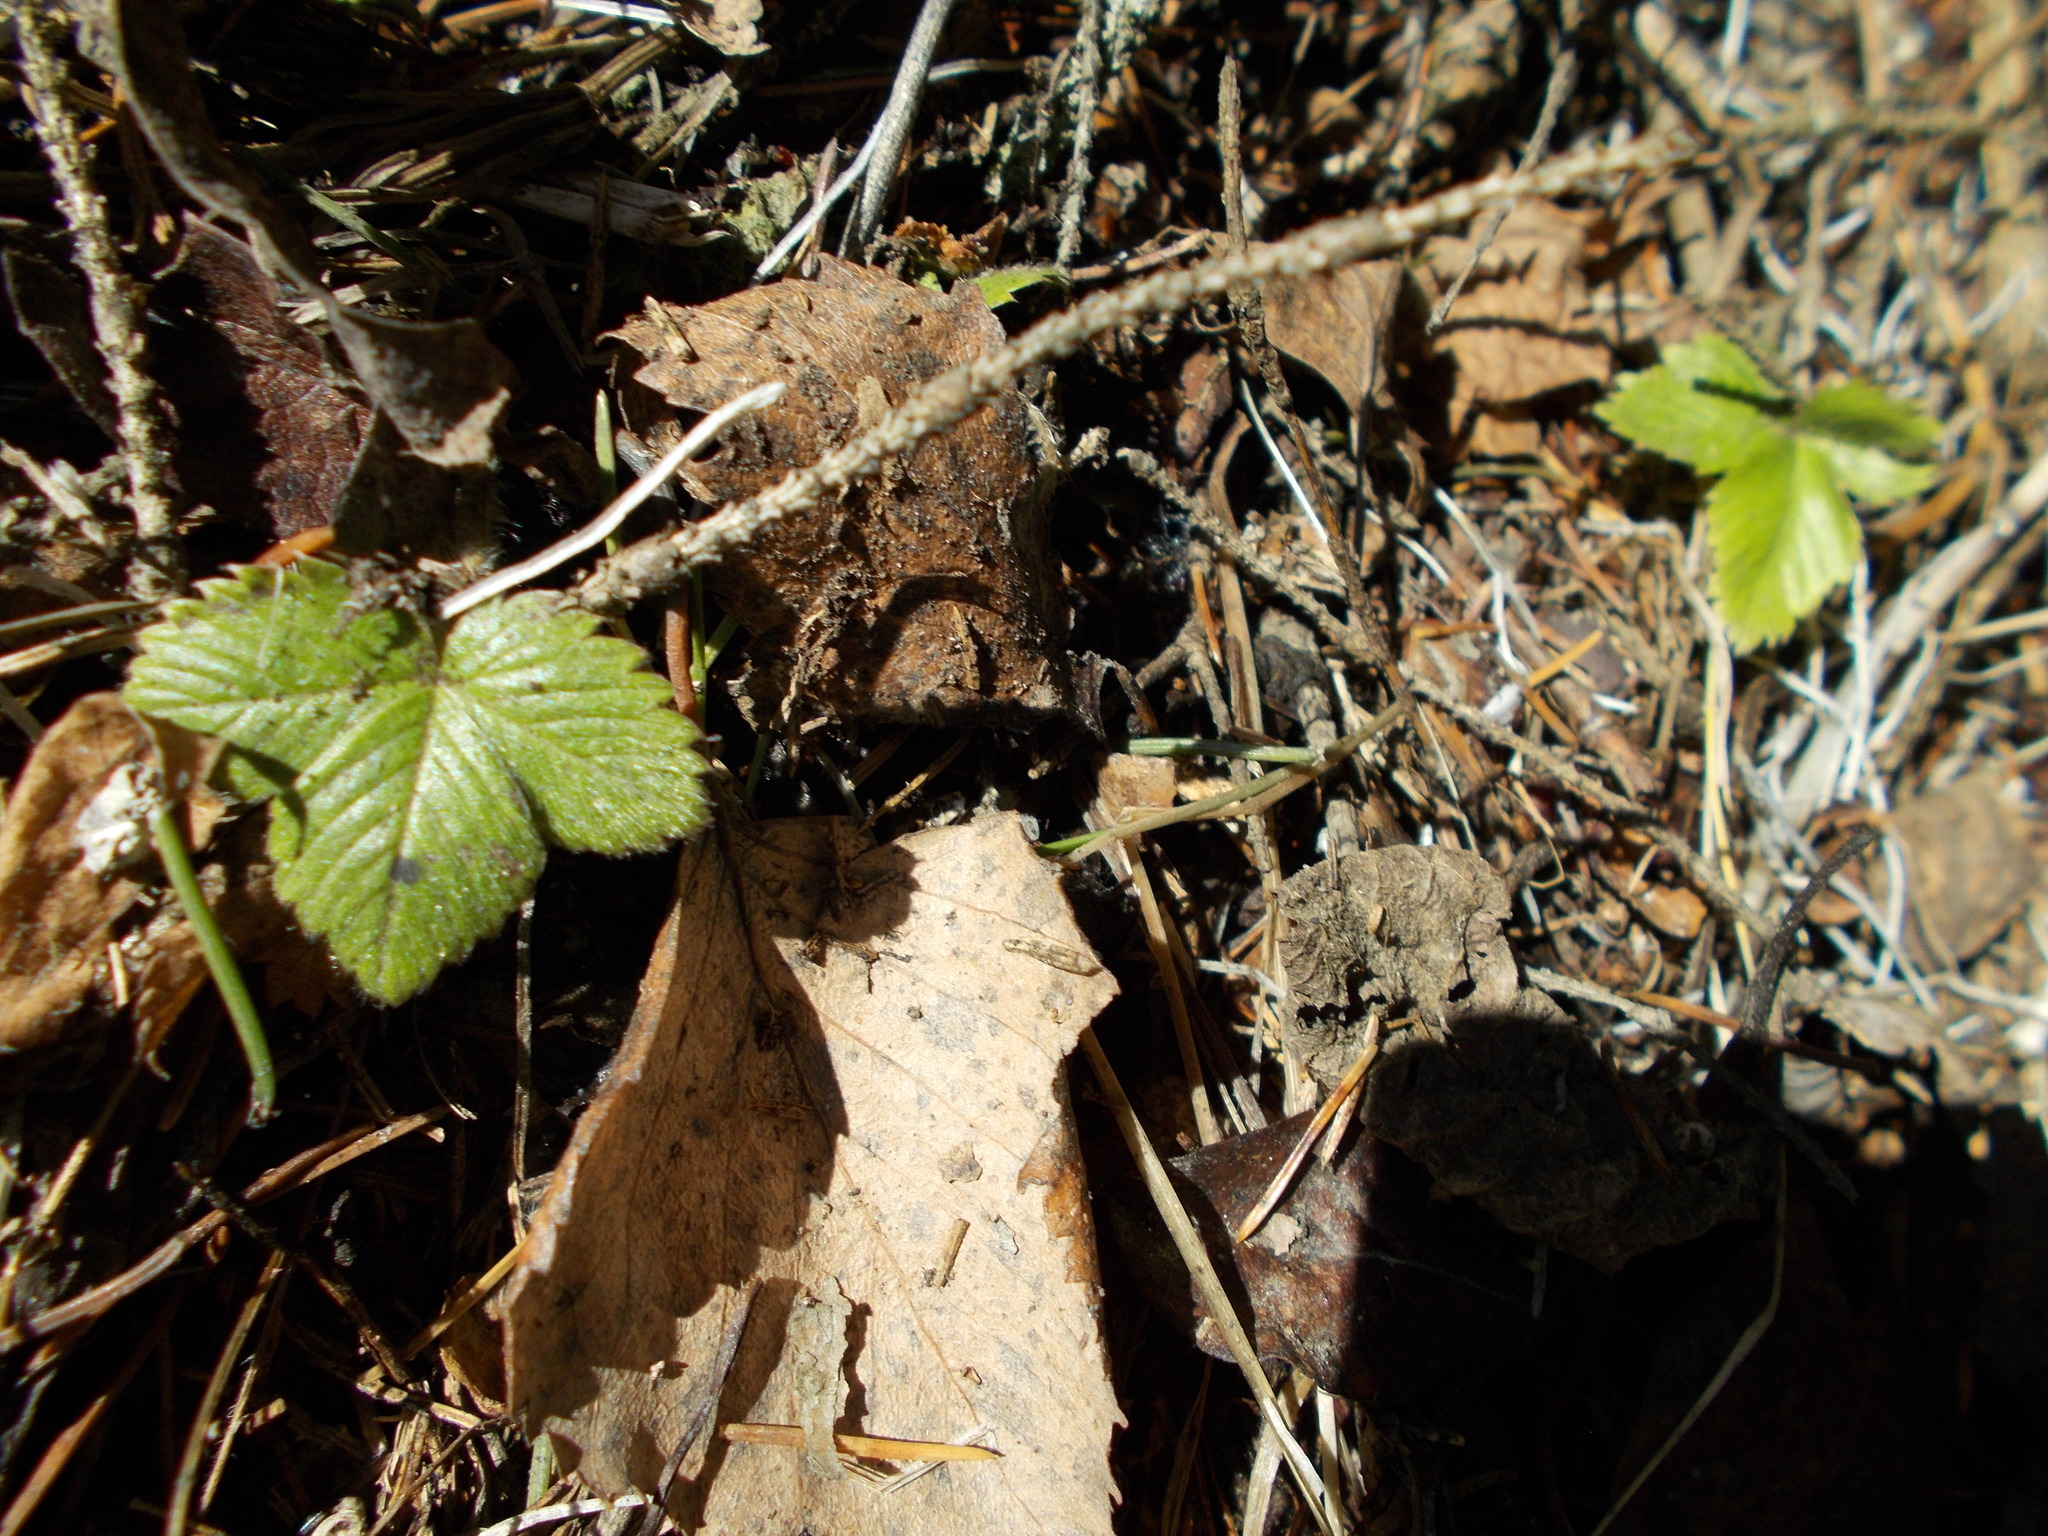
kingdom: Plantae
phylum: Tracheophyta
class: Magnoliopsida
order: Rosales
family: Rosaceae
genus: Fragaria
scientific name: Fragaria vesca
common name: Wild strawberry
